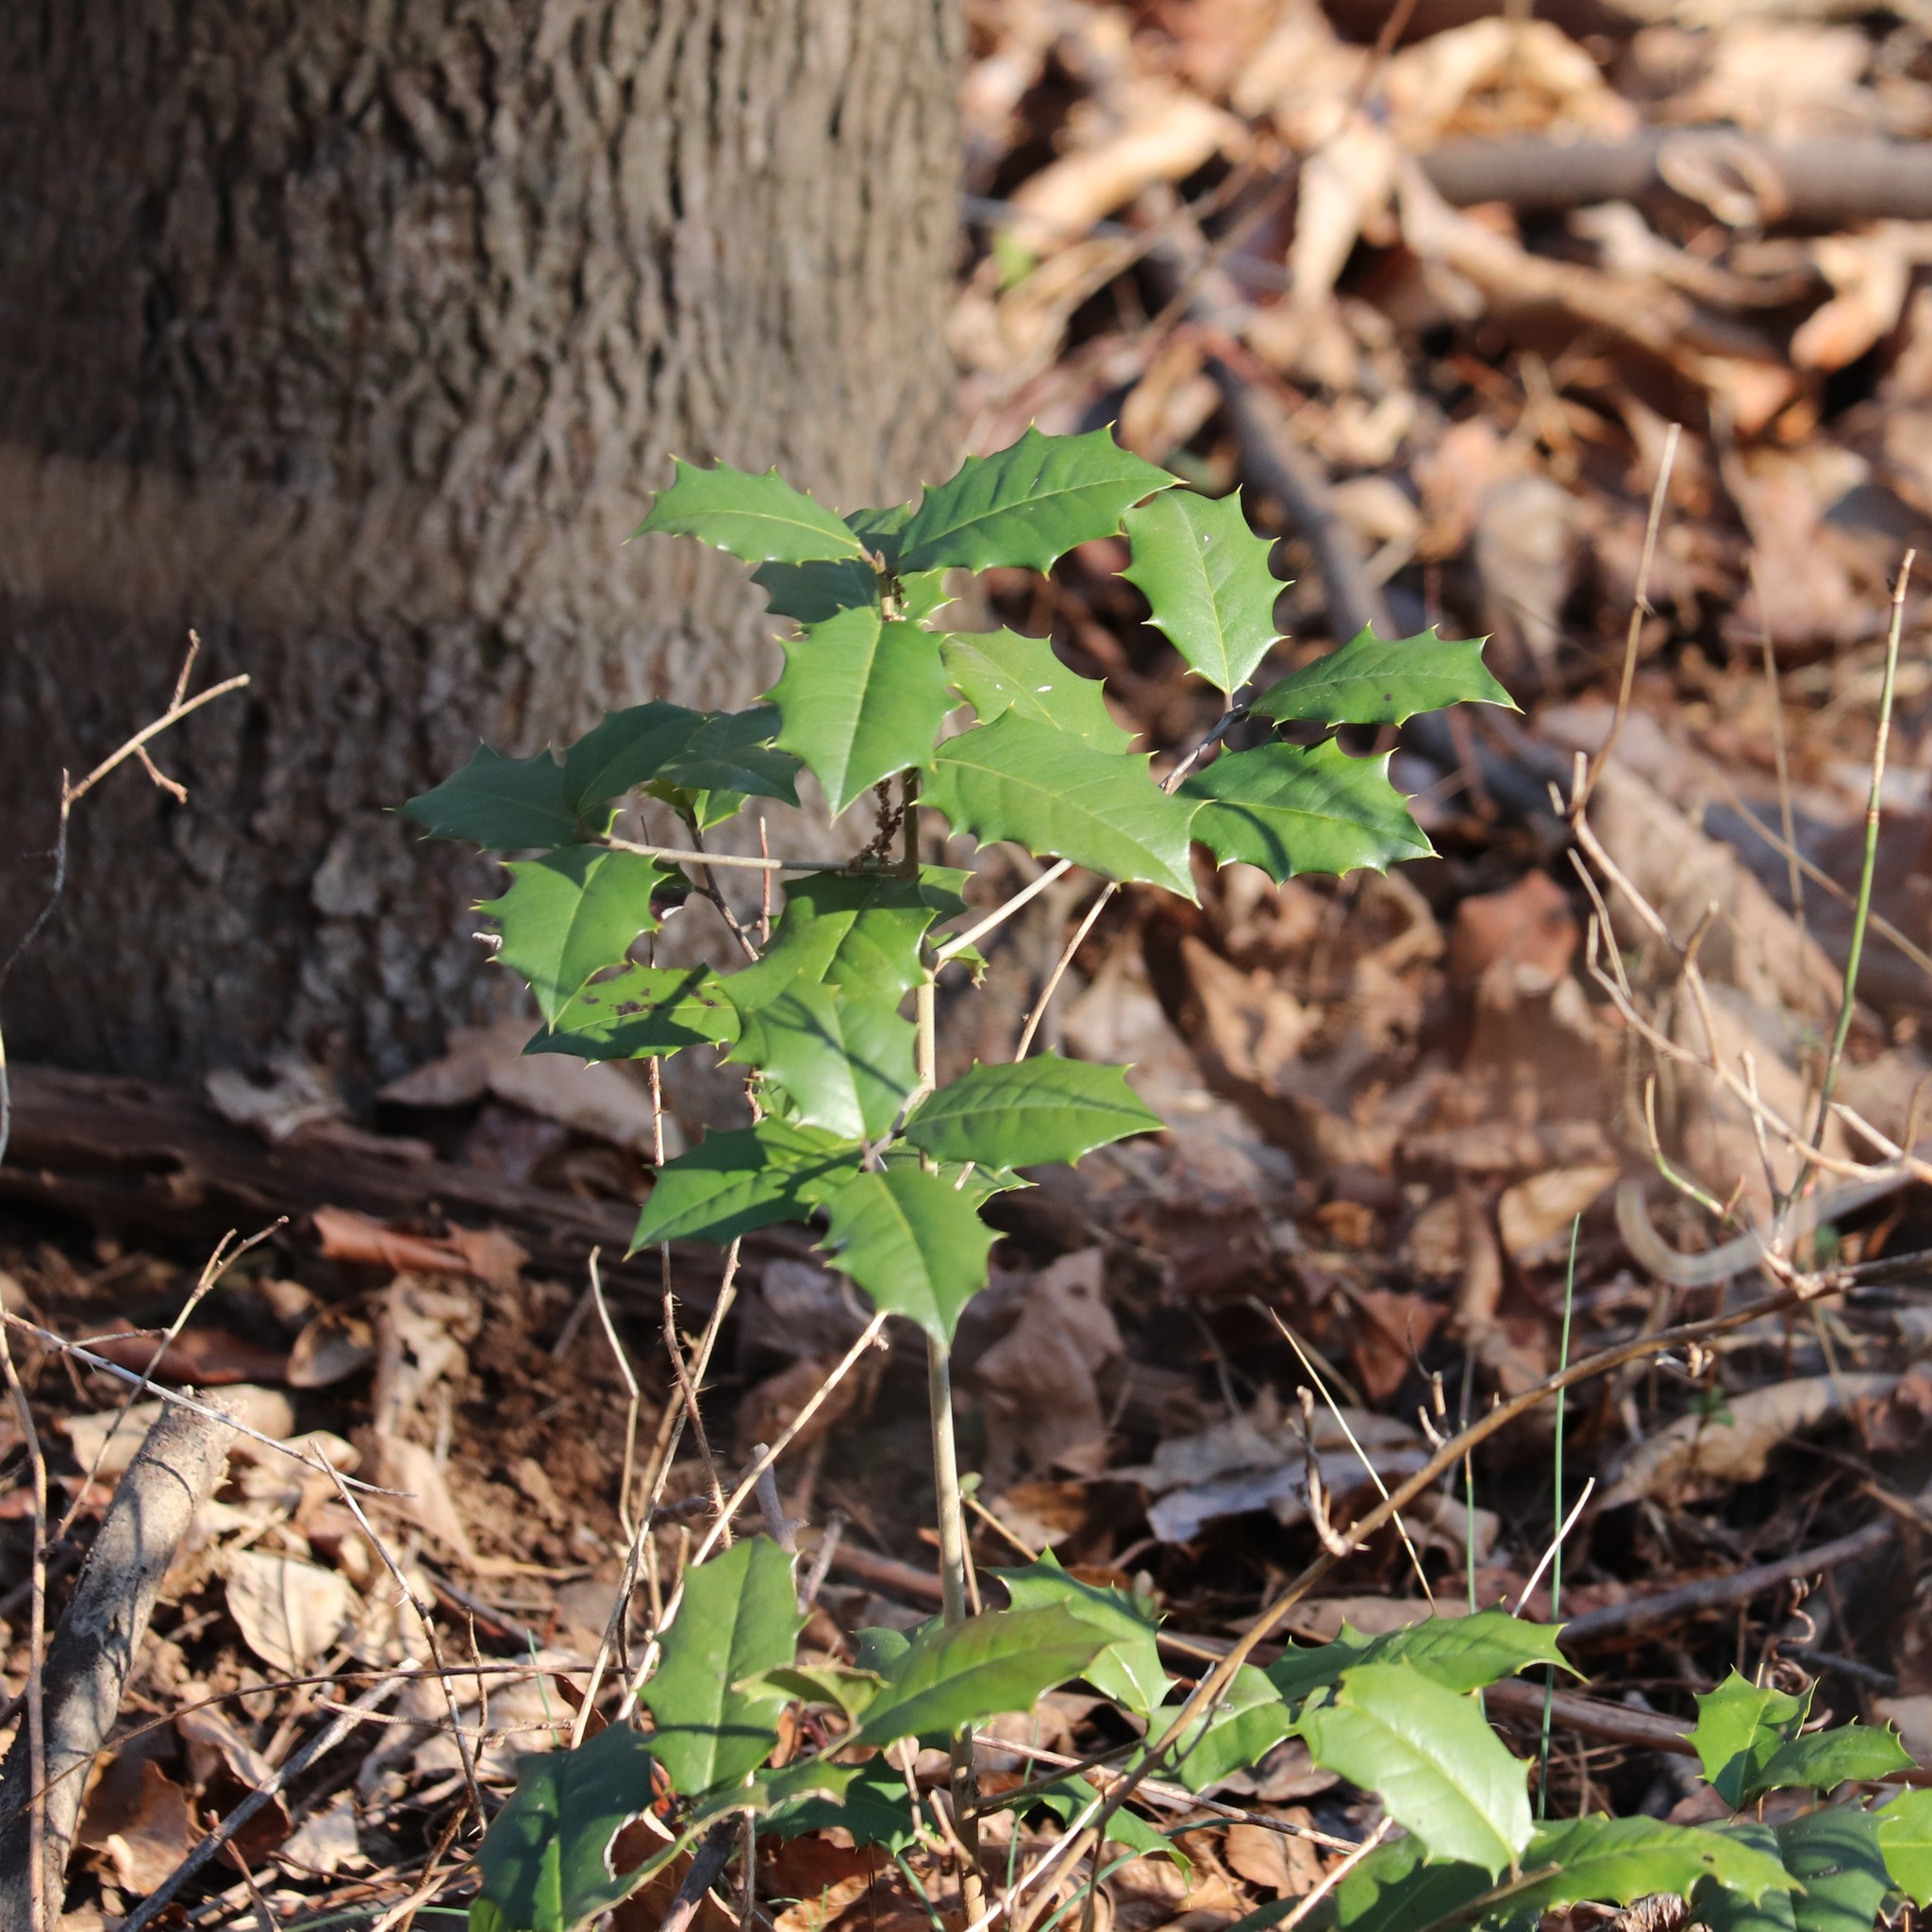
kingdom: Plantae
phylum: Tracheophyta
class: Magnoliopsida
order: Aquifoliales
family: Aquifoliaceae
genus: Ilex
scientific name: Ilex opaca
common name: American holly
